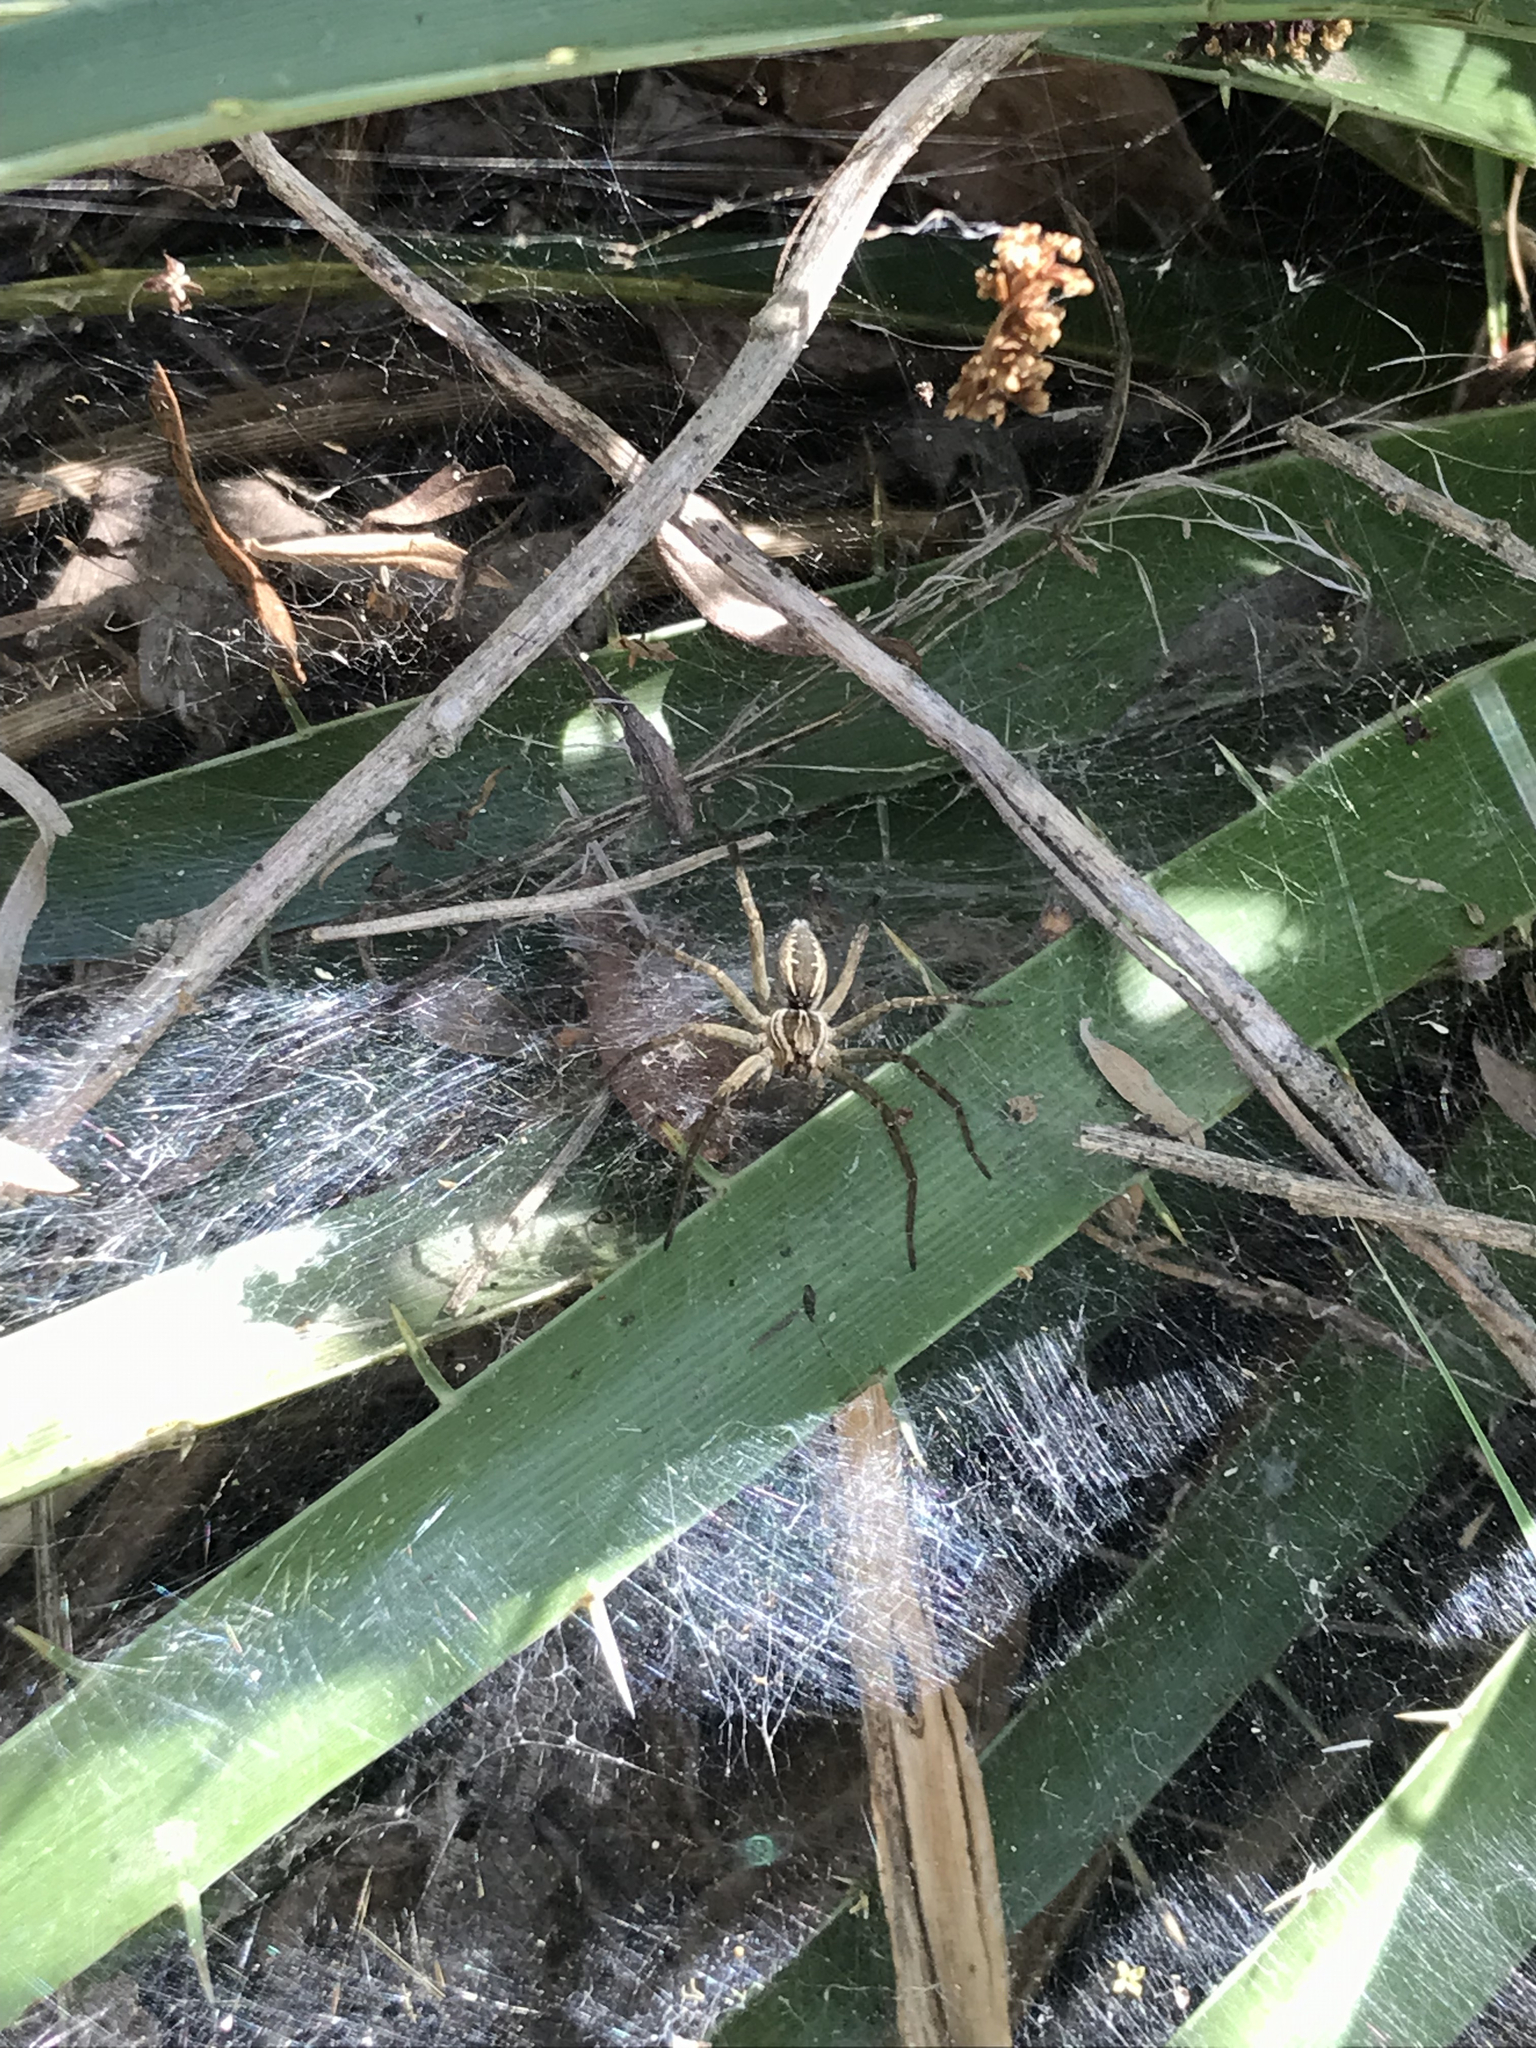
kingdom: Animalia
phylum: Arthropoda
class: Arachnida
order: Araneae
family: Lycosidae
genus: Aglaoctenus
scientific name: Aglaoctenus lagotis
